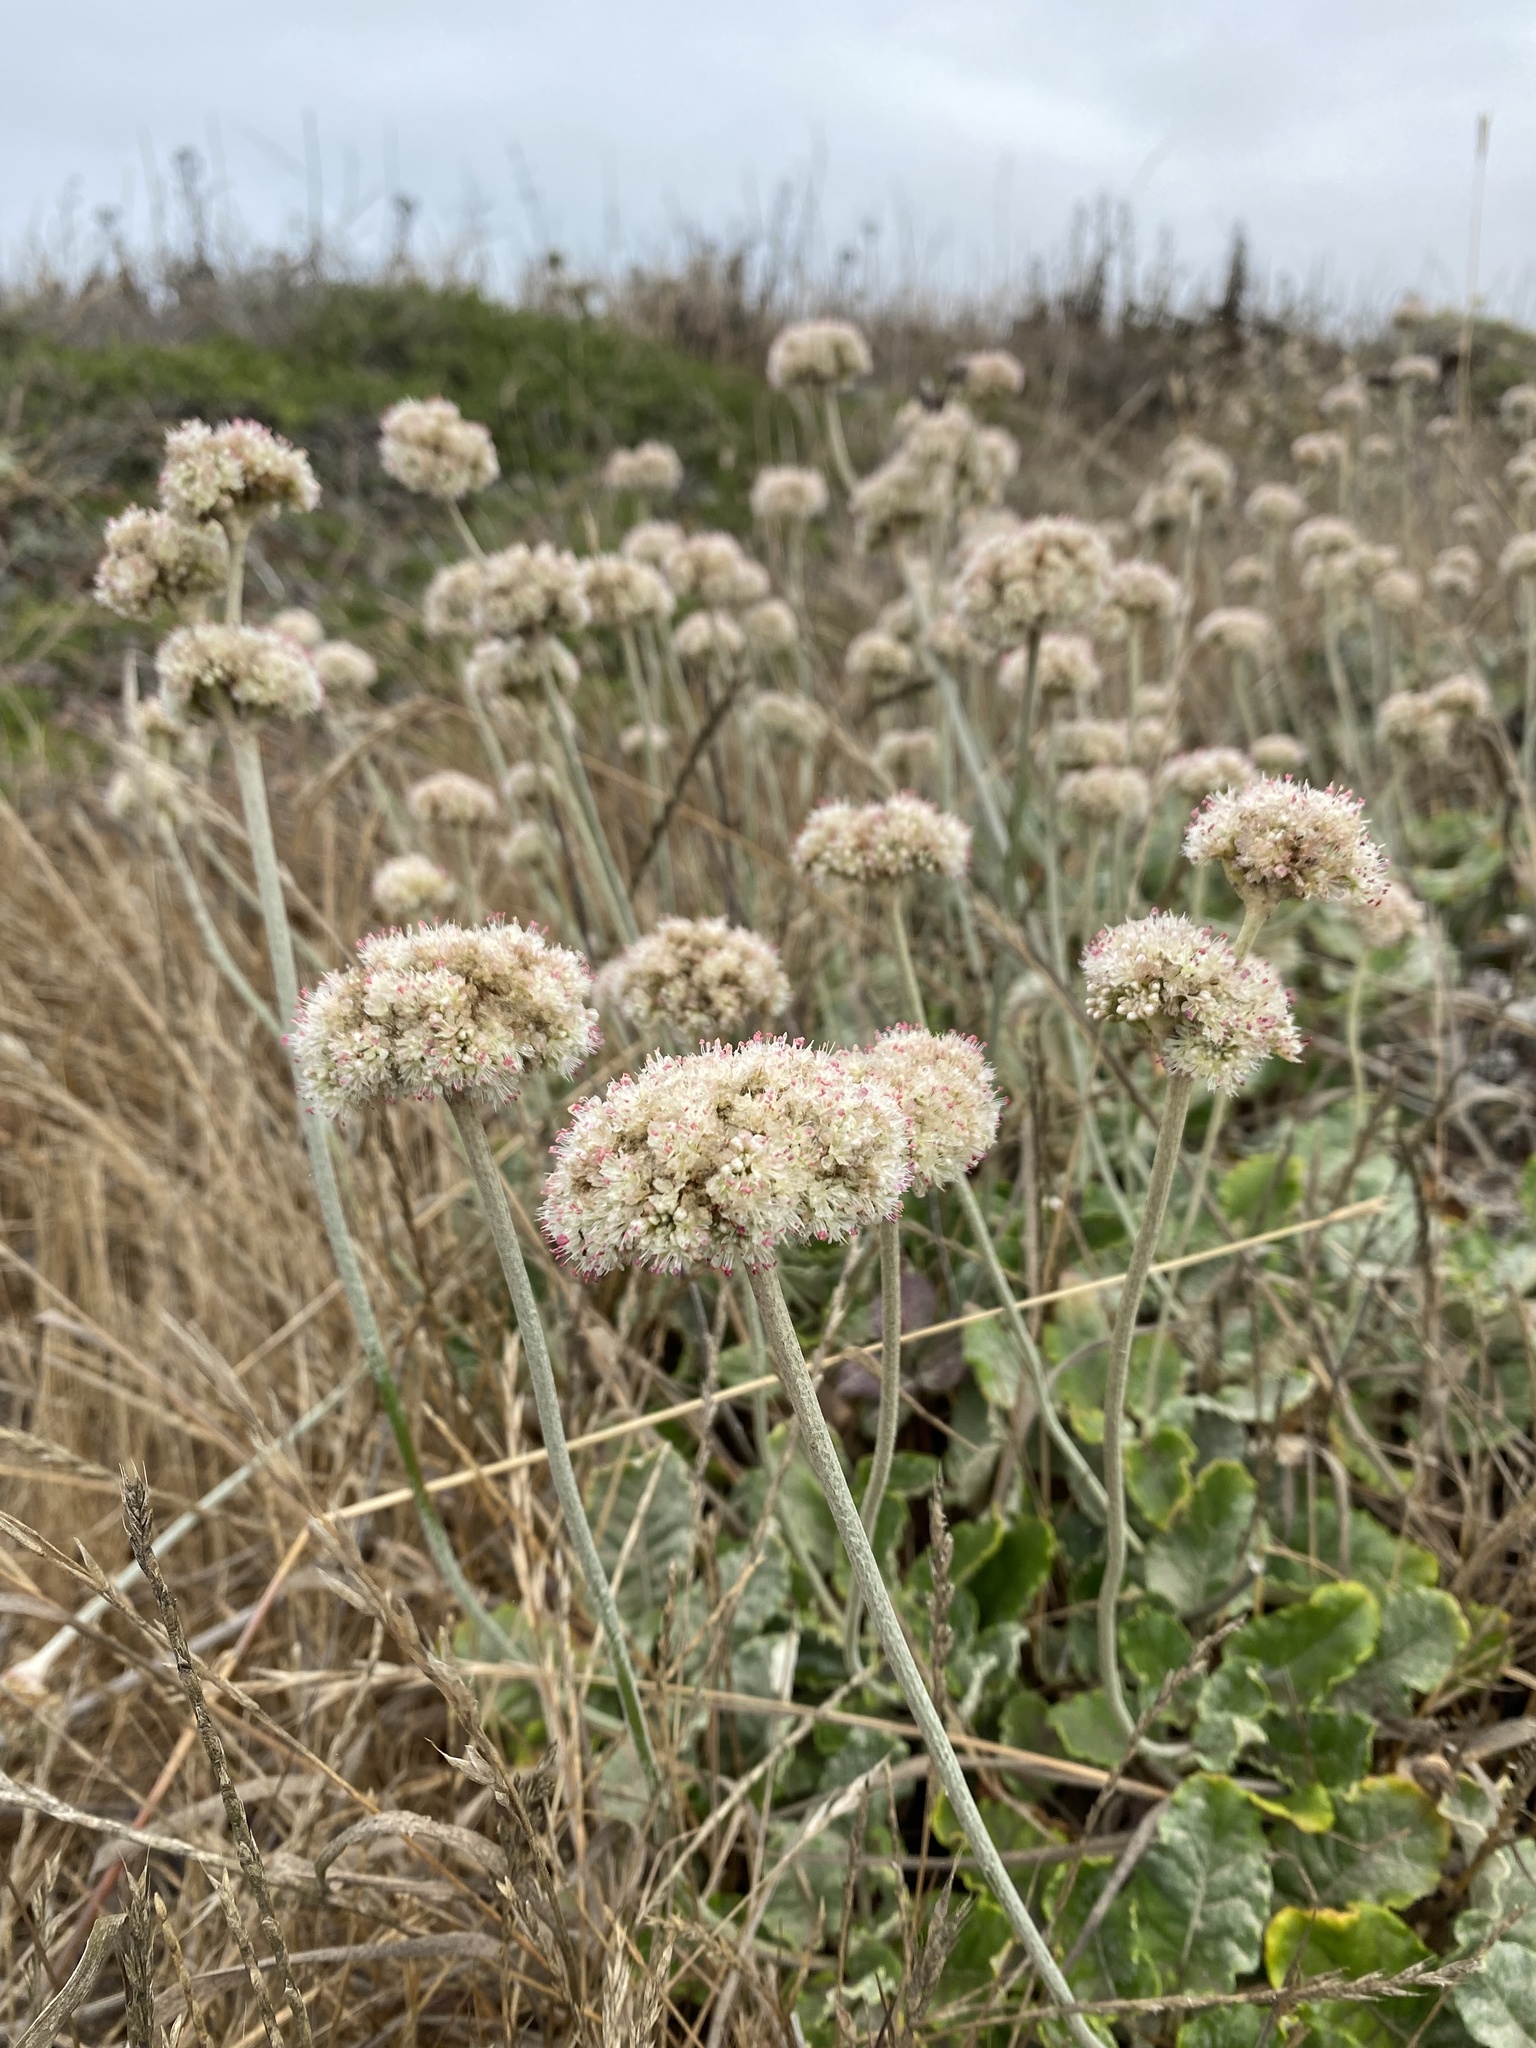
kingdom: Plantae
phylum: Tracheophyta
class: Magnoliopsida
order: Caryophyllales
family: Polygonaceae
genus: Eriogonum
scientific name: Eriogonum latifolium
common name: Seaside wild buckwheat
